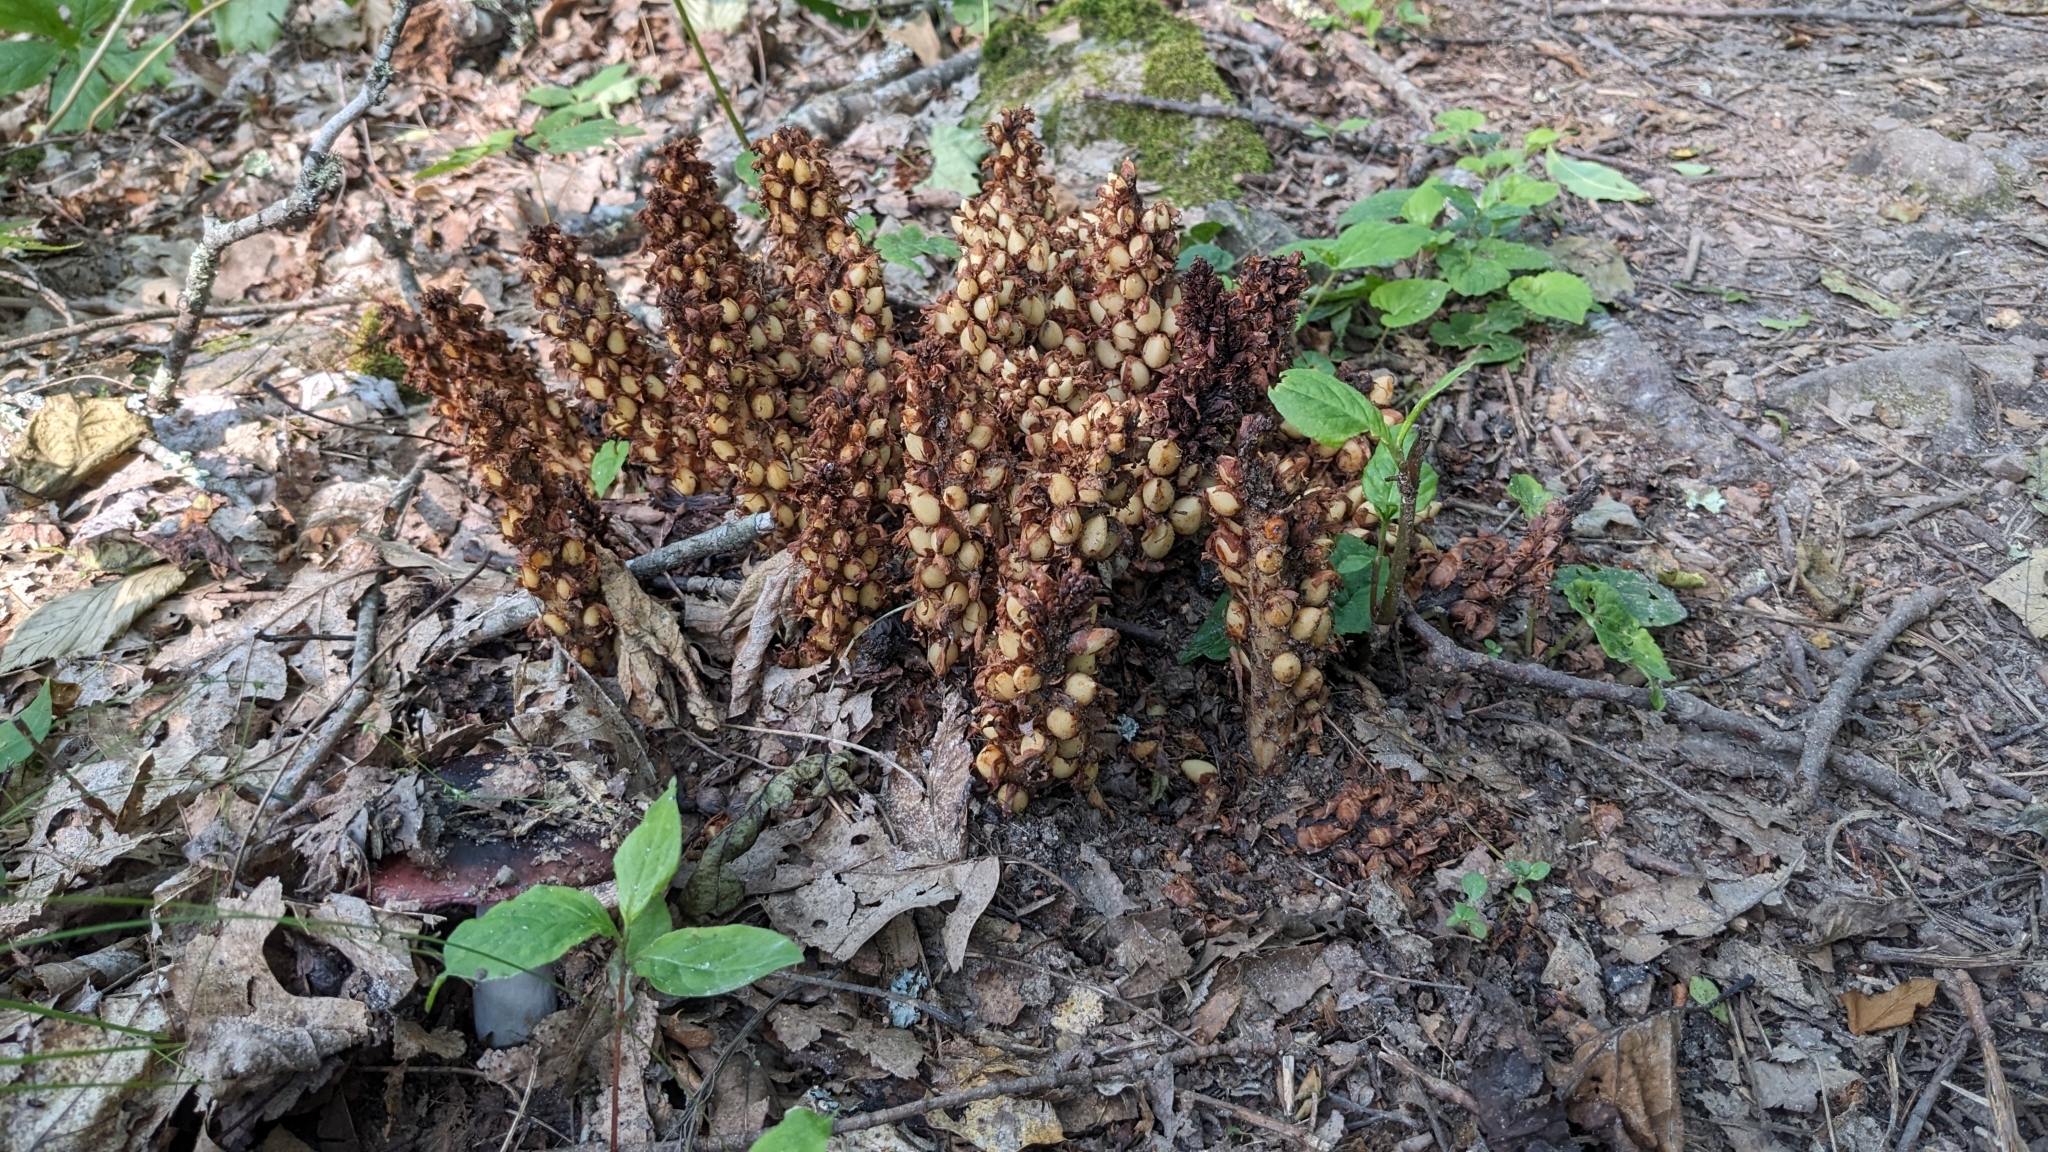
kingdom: Plantae
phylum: Tracheophyta
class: Magnoliopsida
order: Lamiales
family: Orobanchaceae
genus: Conopholis
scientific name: Conopholis americana
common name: American cancer-root
